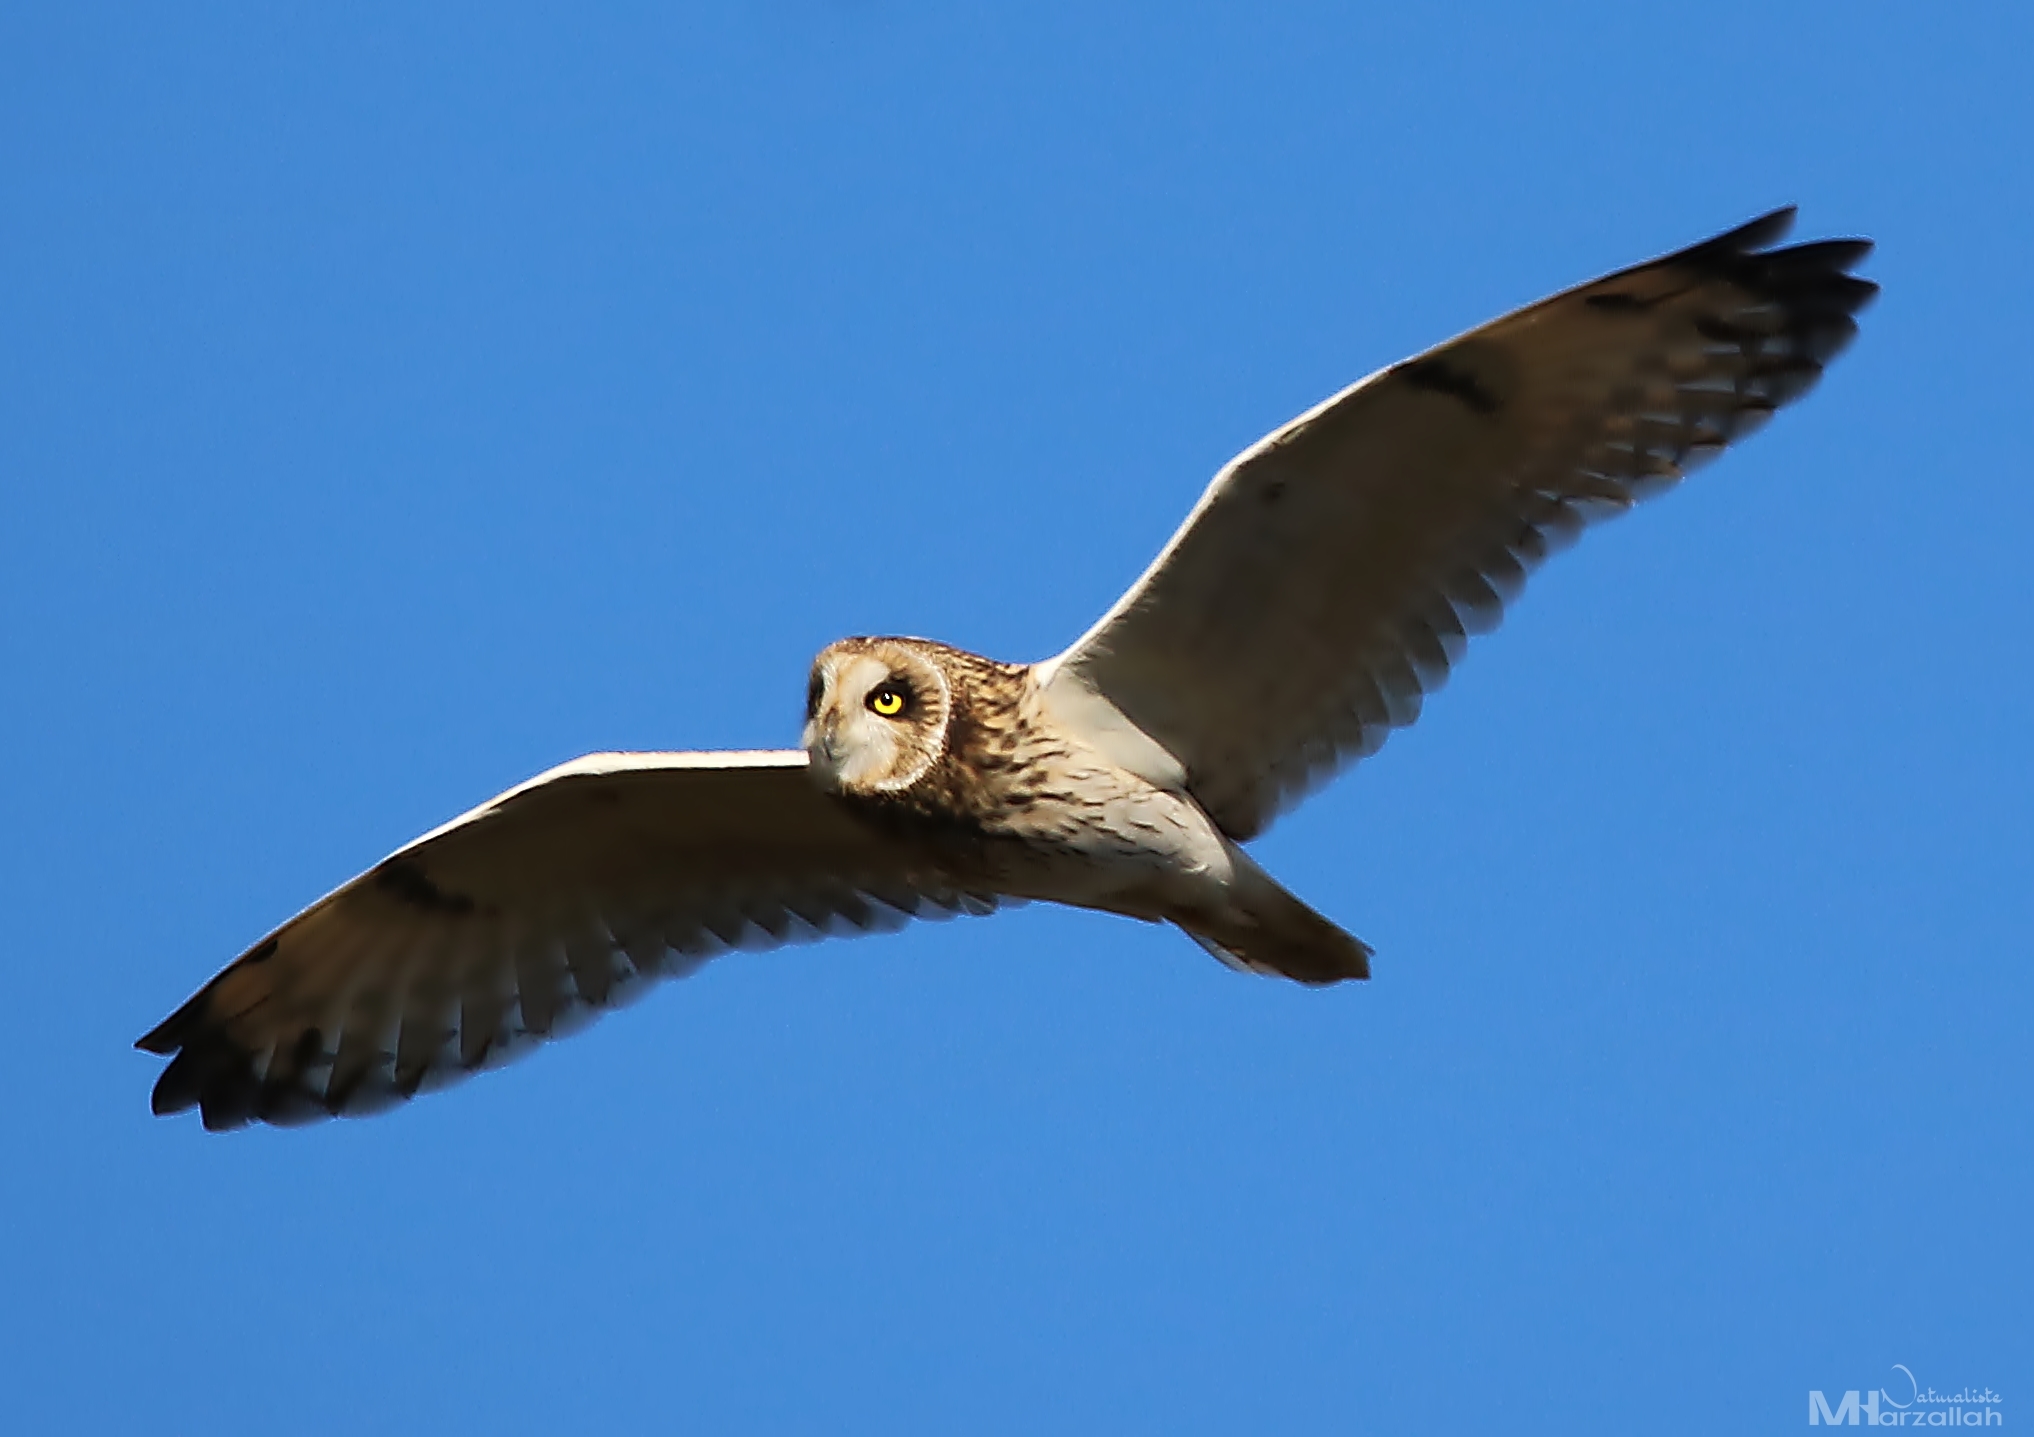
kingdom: Animalia
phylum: Chordata
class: Aves
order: Strigiformes
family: Strigidae
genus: Asio
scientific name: Asio flammeus
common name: Short-eared owl
